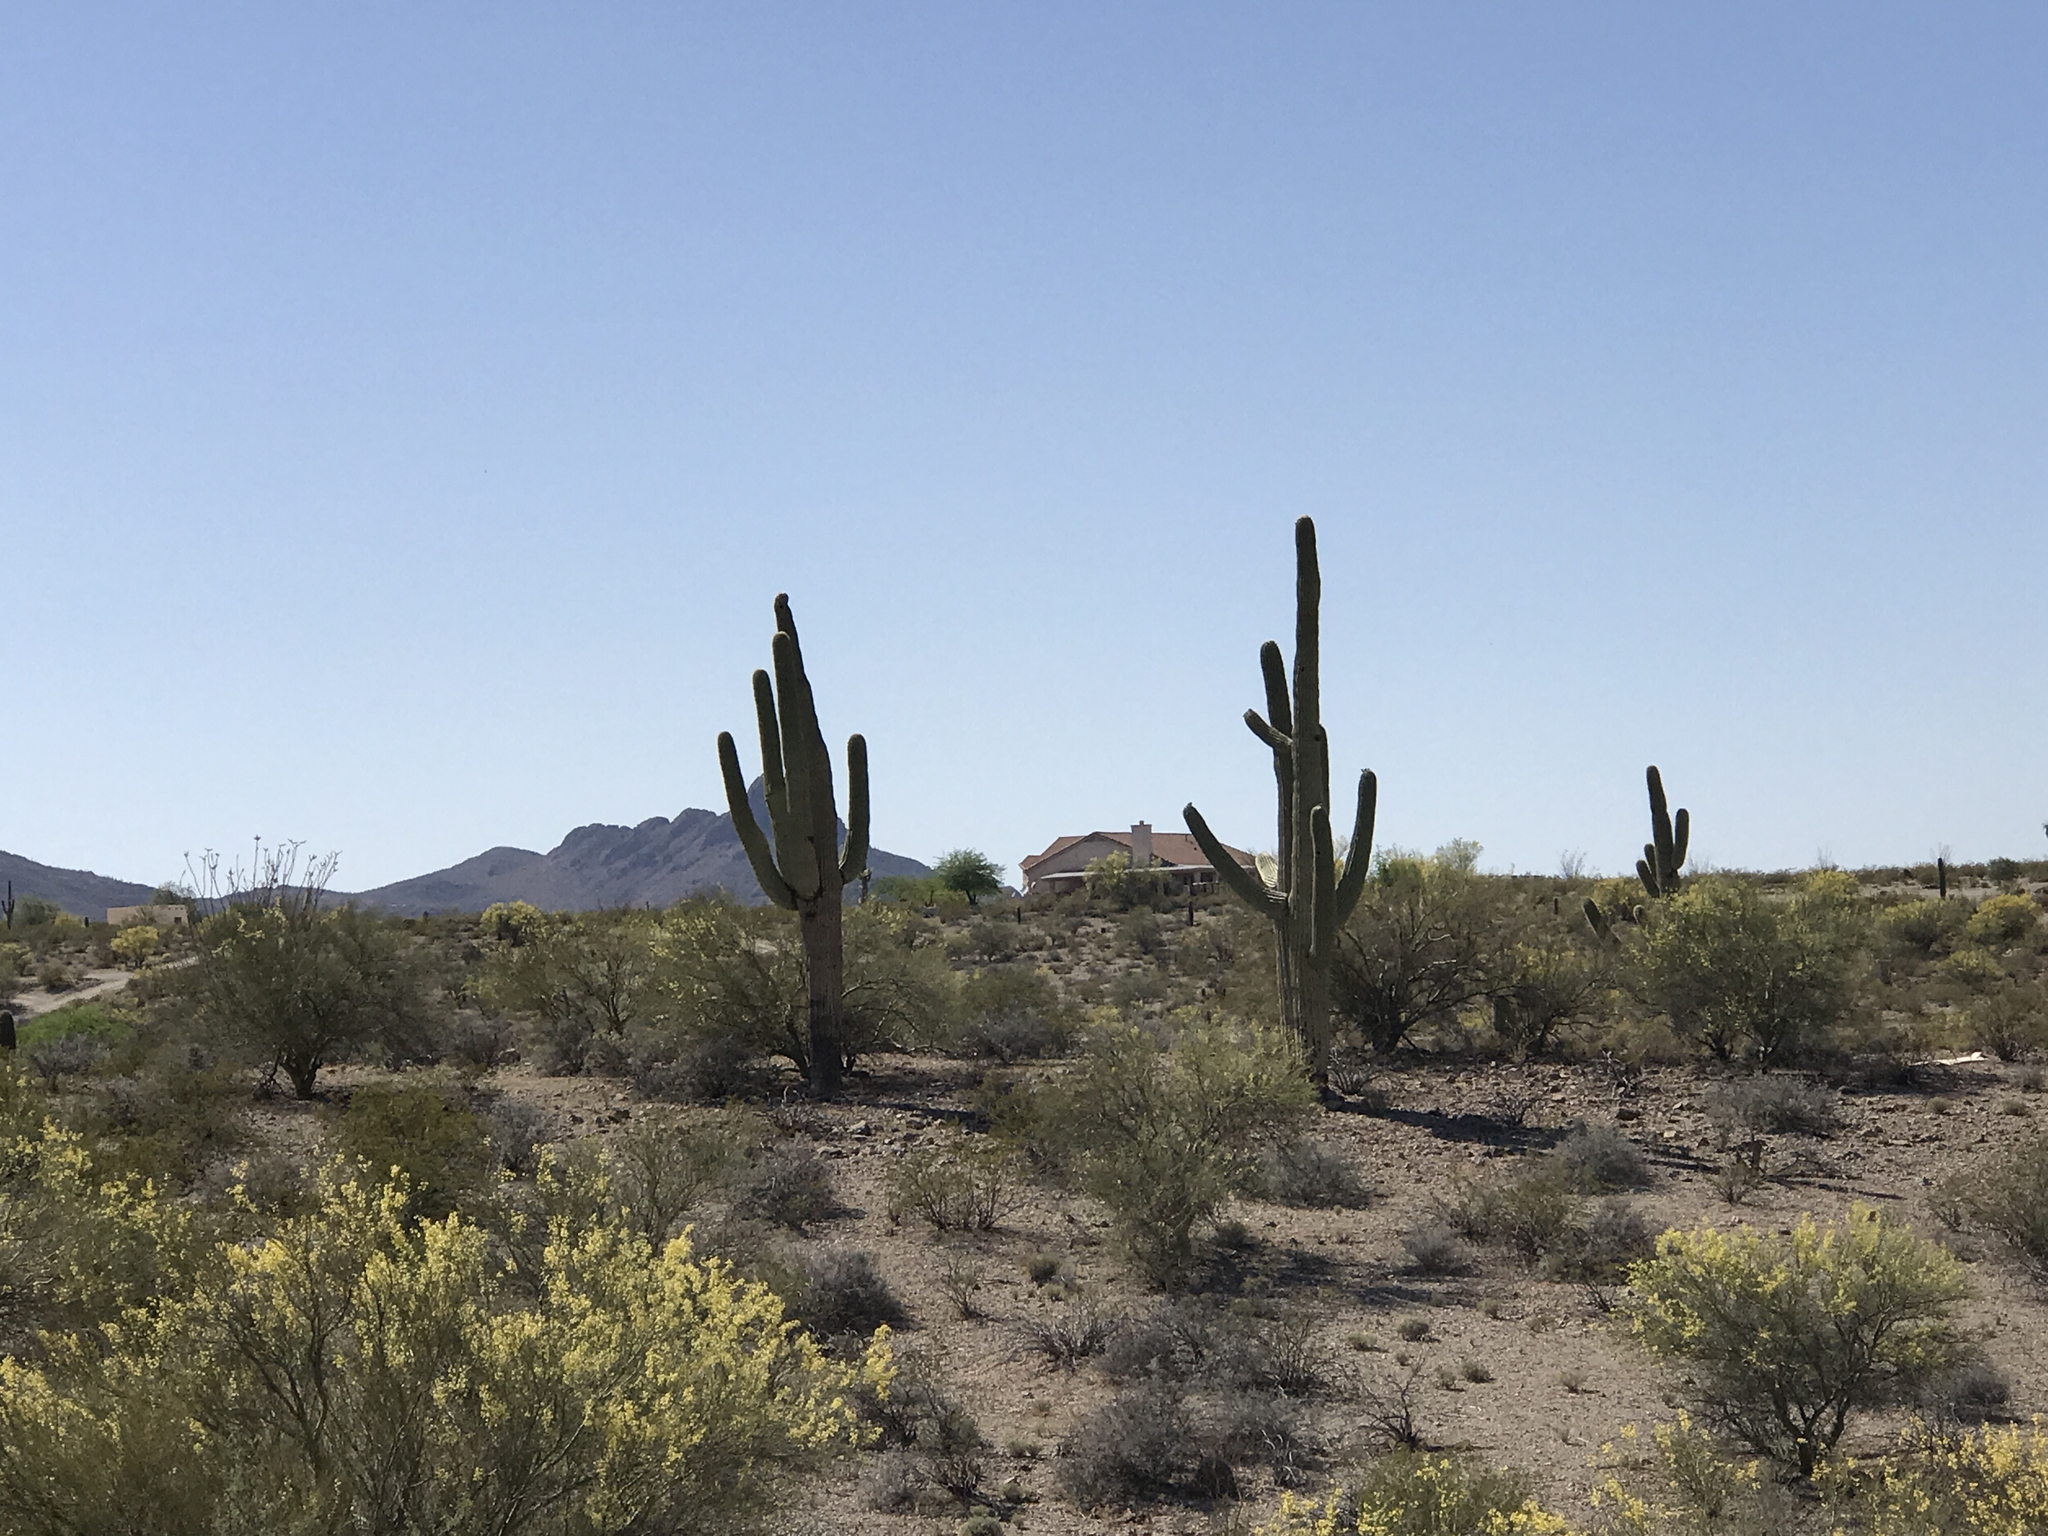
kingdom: Plantae
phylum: Tracheophyta
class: Magnoliopsida
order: Caryophyllales
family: Cactaceae
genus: Carnegiea
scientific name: Carnegiea gigantea
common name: Saguaro
